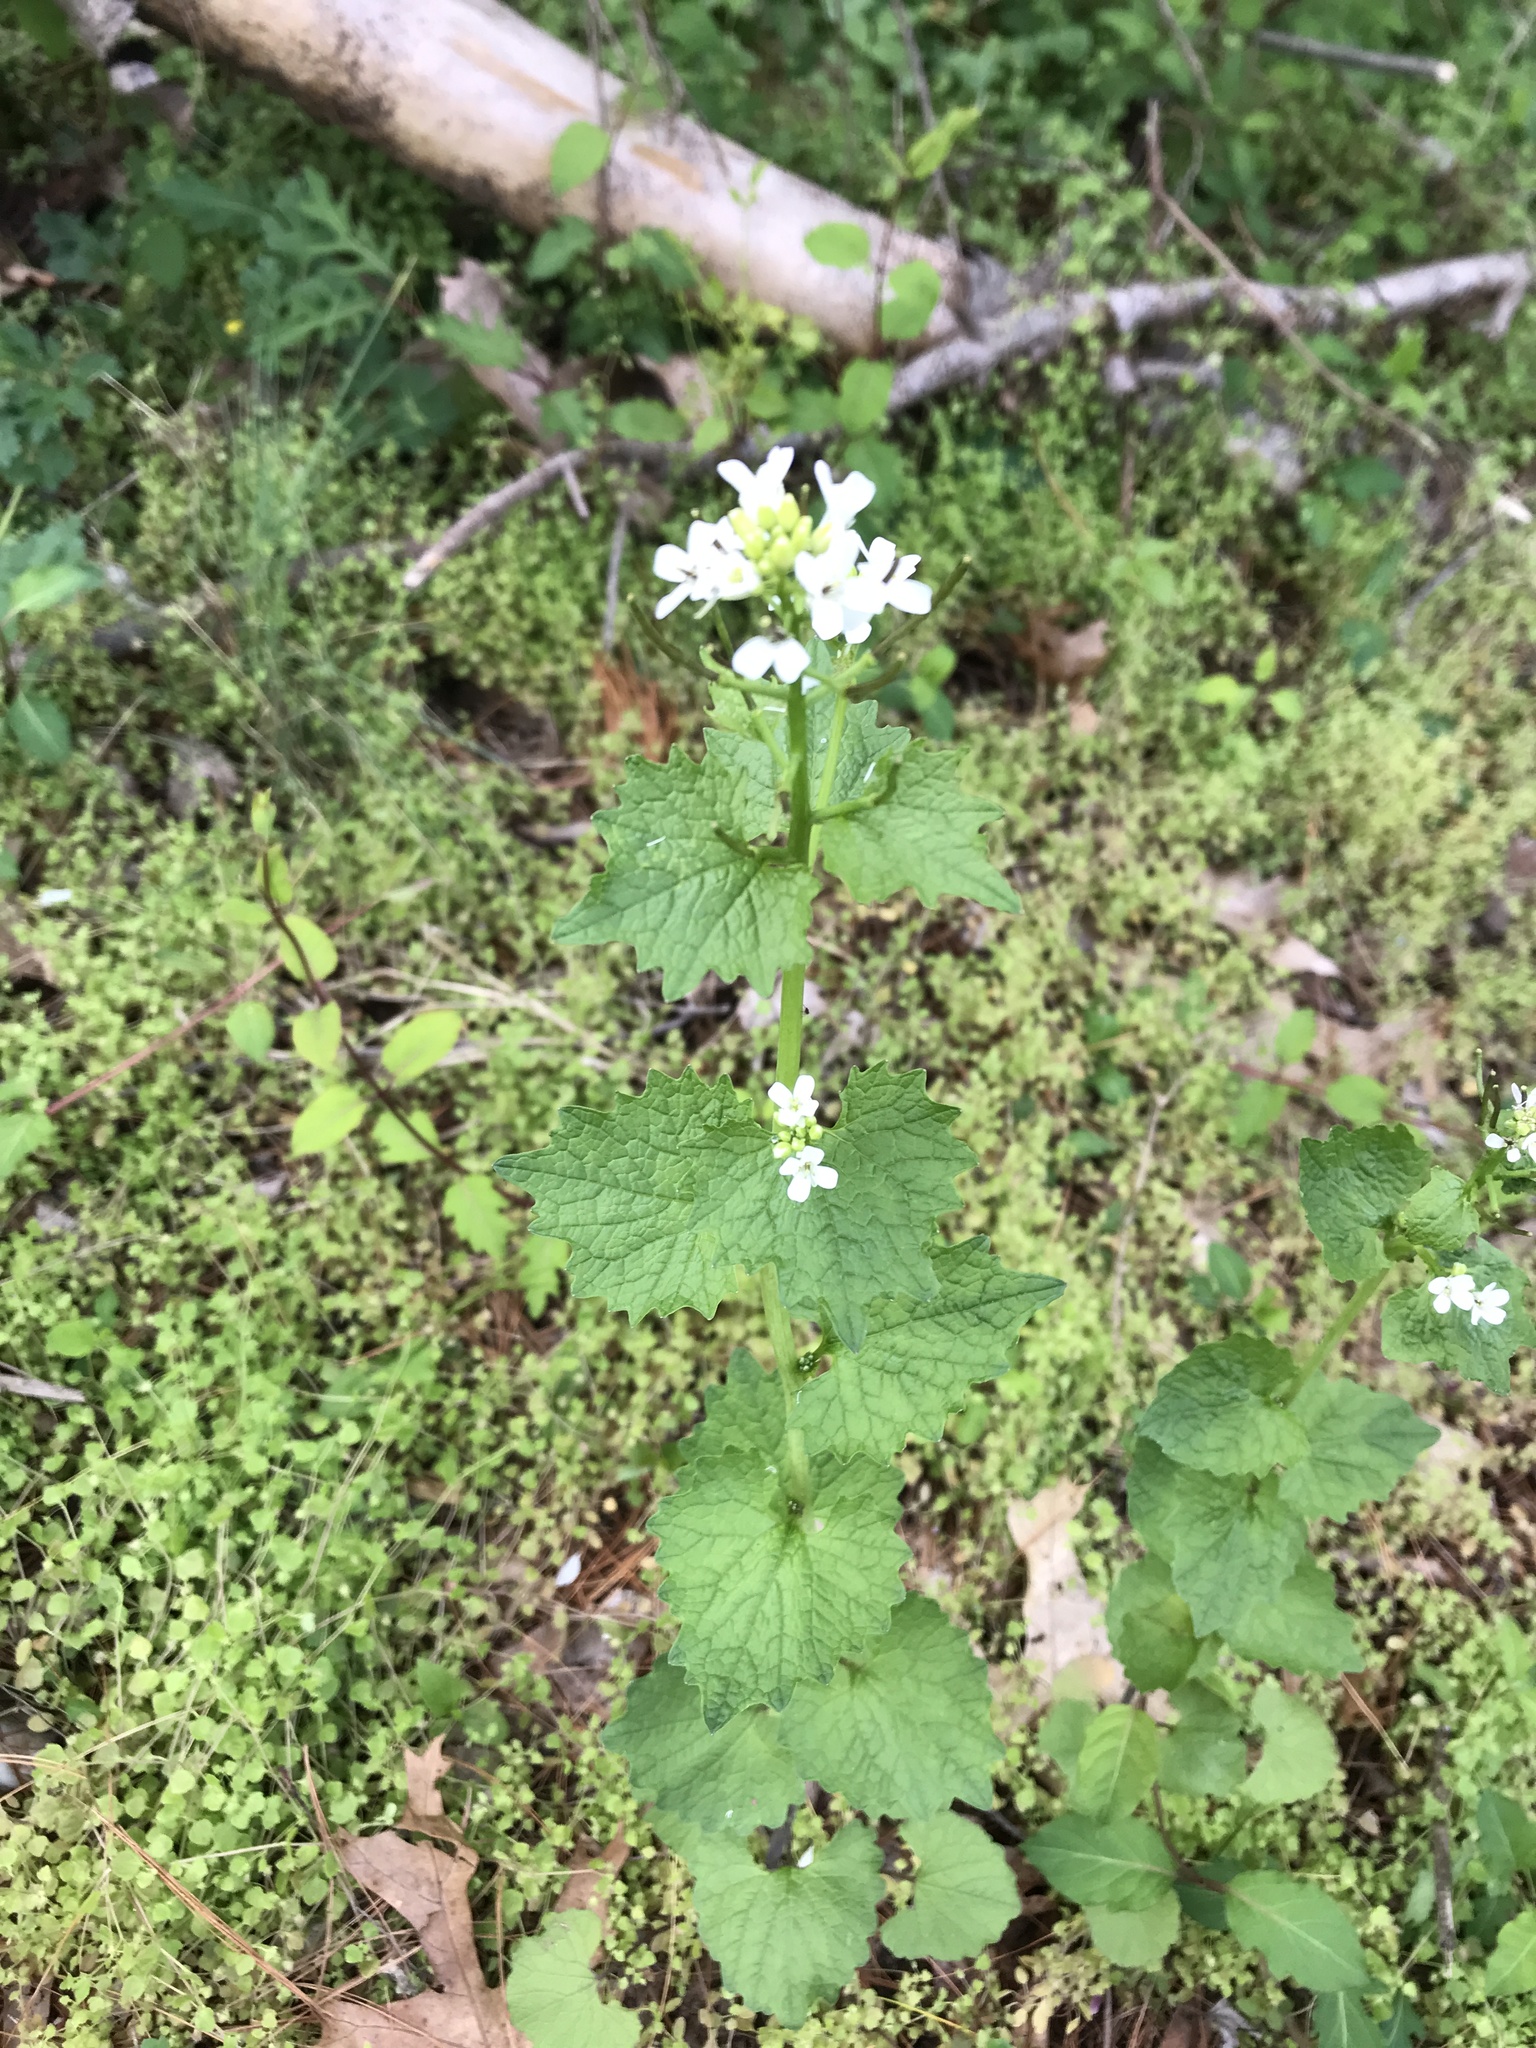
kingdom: Plantae
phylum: Tracheophyta
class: Magnoliopsida
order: Brassicales
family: Brassicaceae
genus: Alliaria
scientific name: Alliaria petiolata
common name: Garlic mustard
